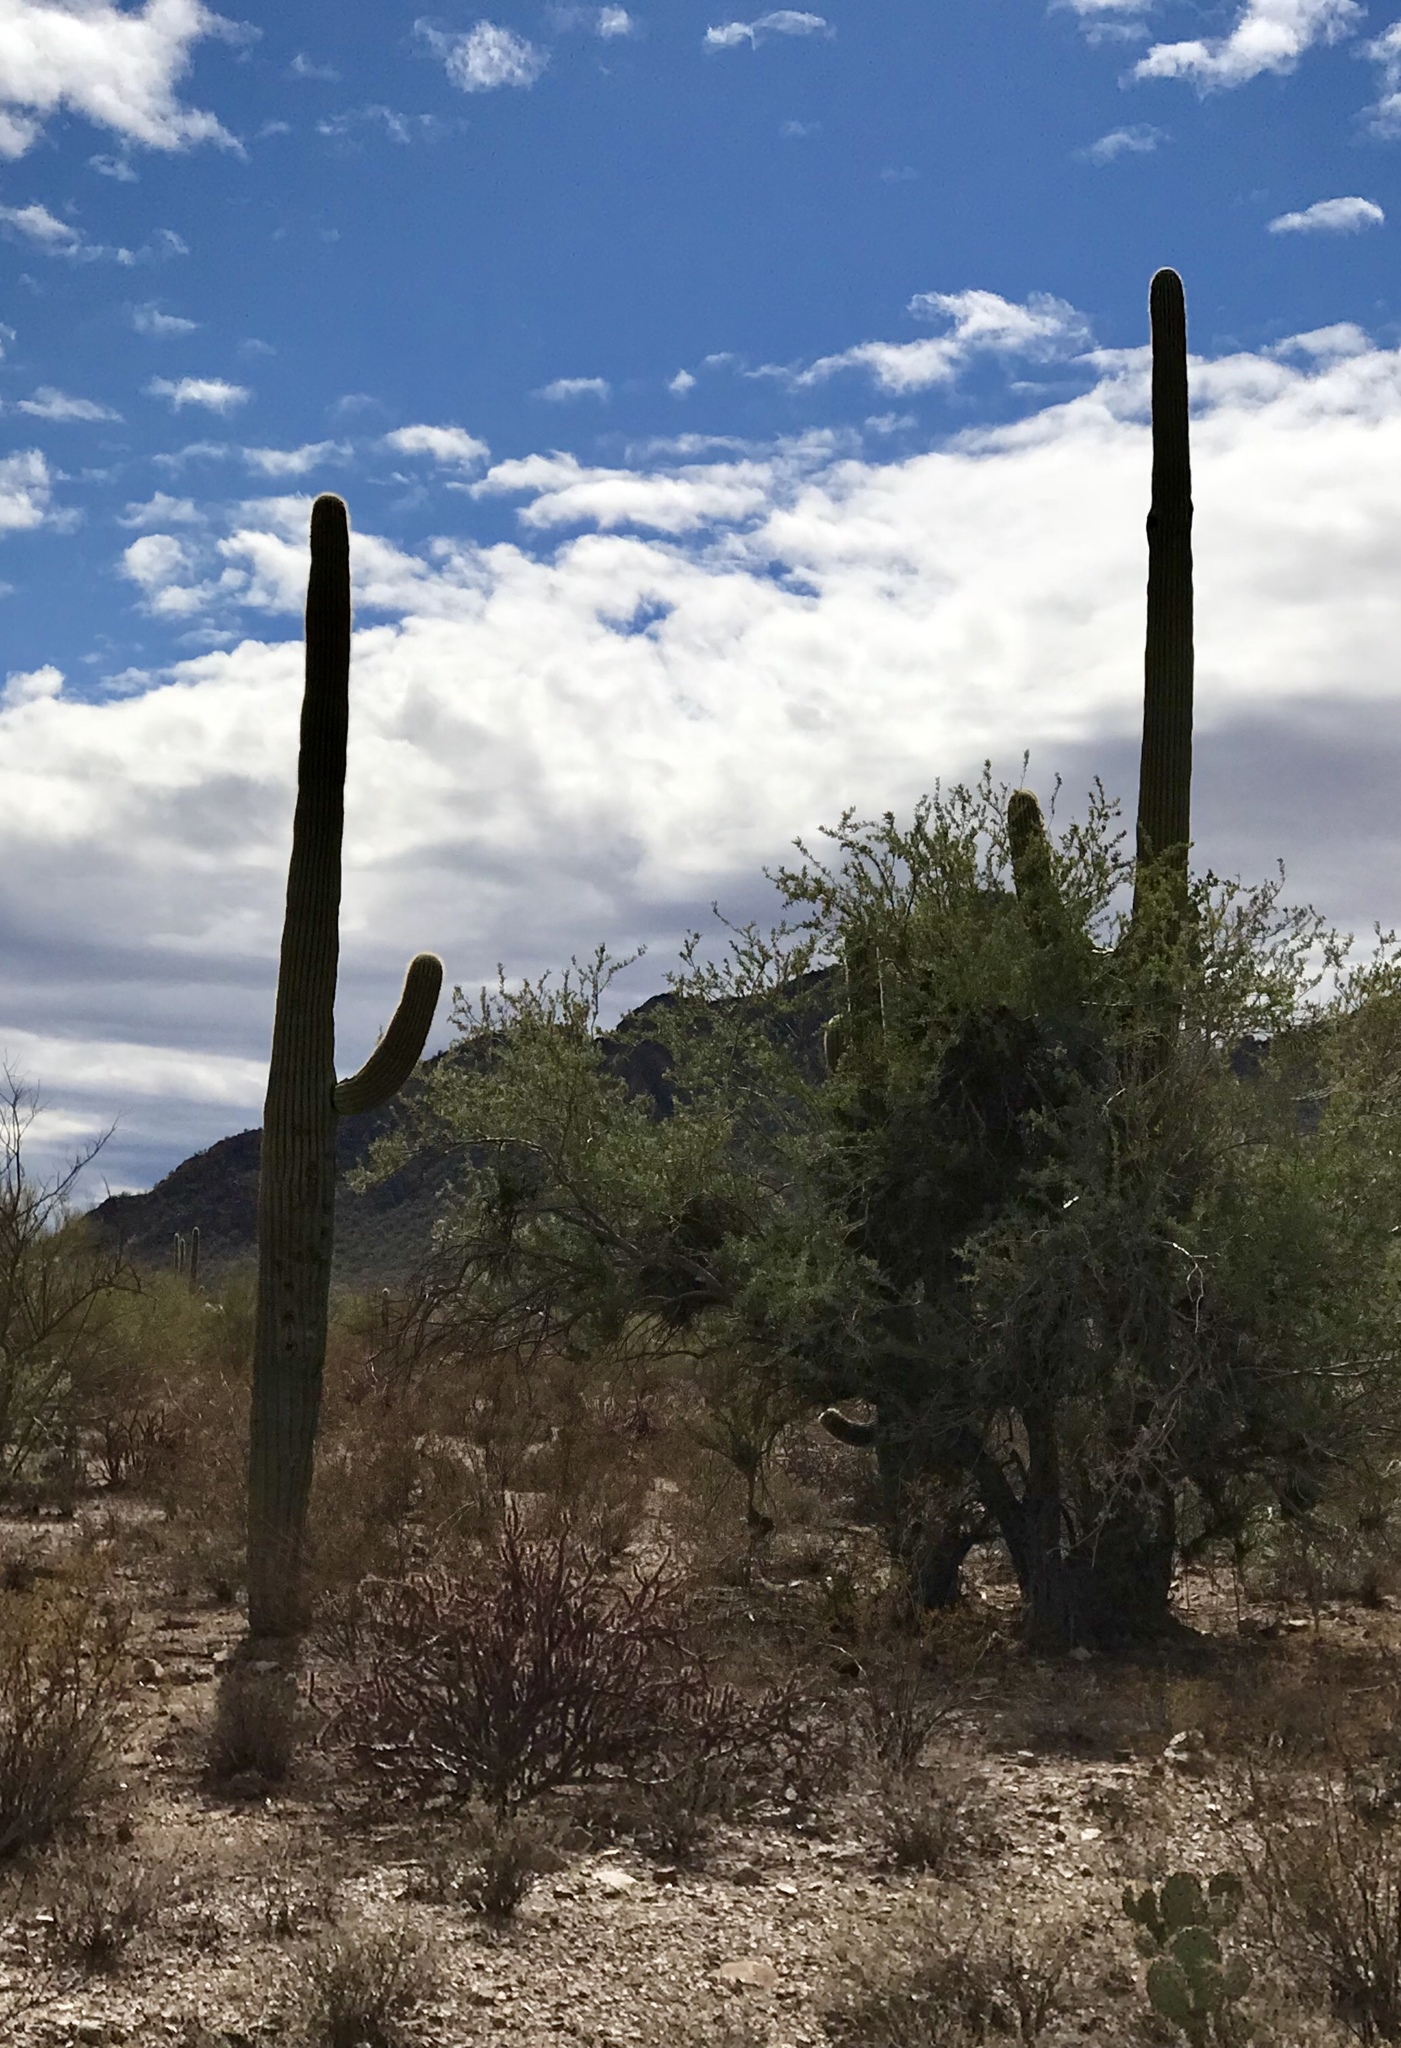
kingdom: Plantae
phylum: Tracheophyta
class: Magnoliopsida
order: Caryophyllales
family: Cactaceae
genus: Carnegiea
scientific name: Carnegiea gigantea
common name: Saguaro
